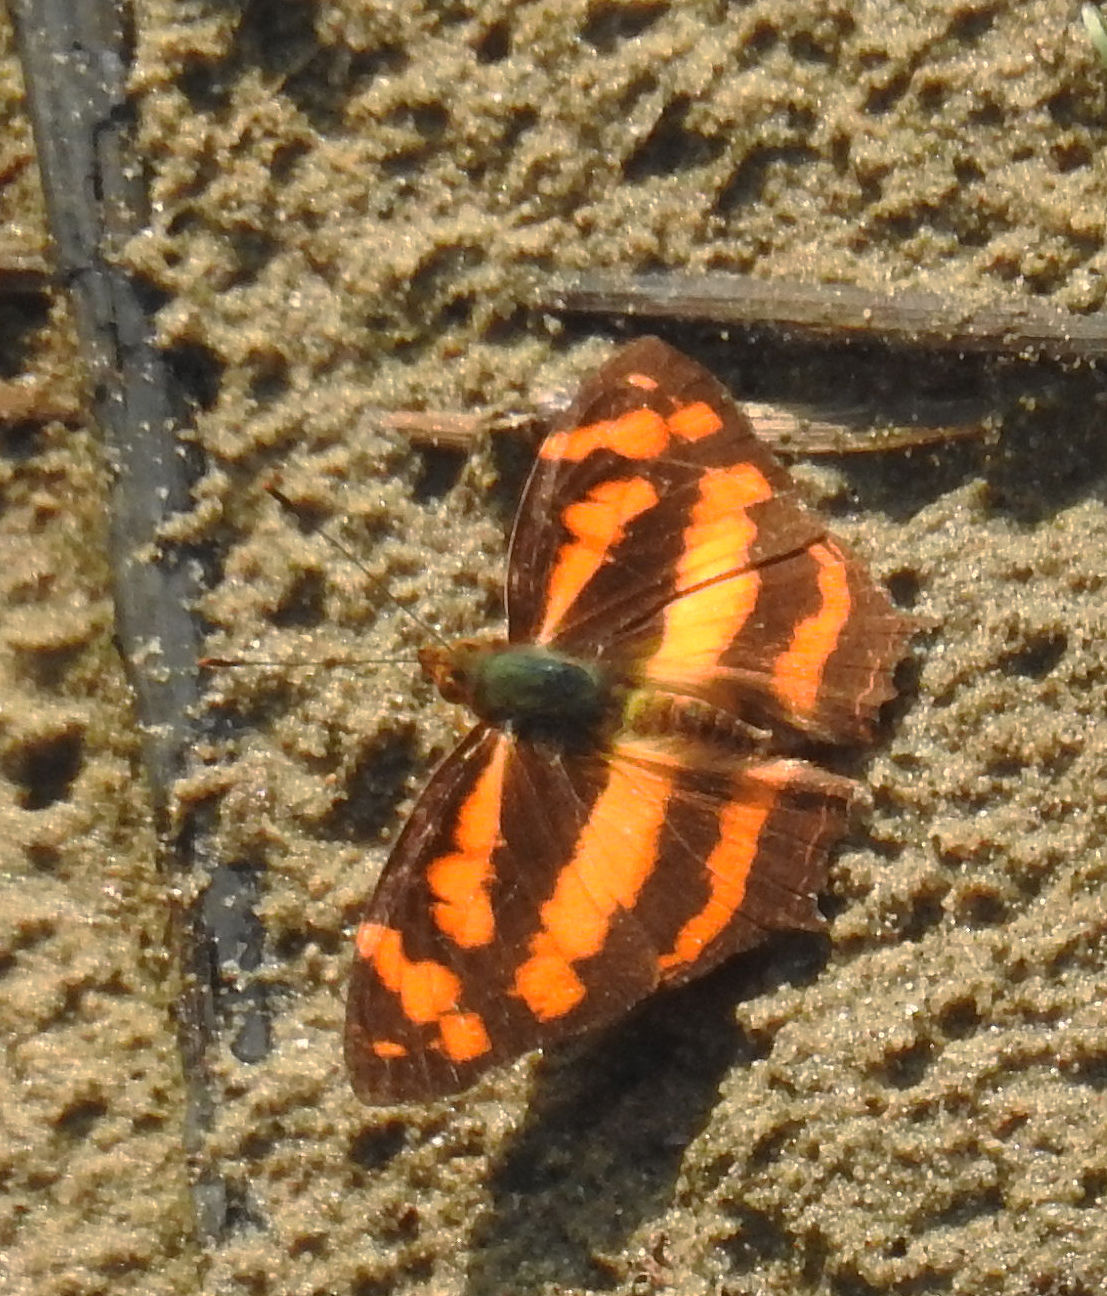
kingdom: Animalia
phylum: Arthropoda
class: Insecta
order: Lepidoptera
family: Nymphalidae
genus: Symbrenthia
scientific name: Symbrenthia hypselis
